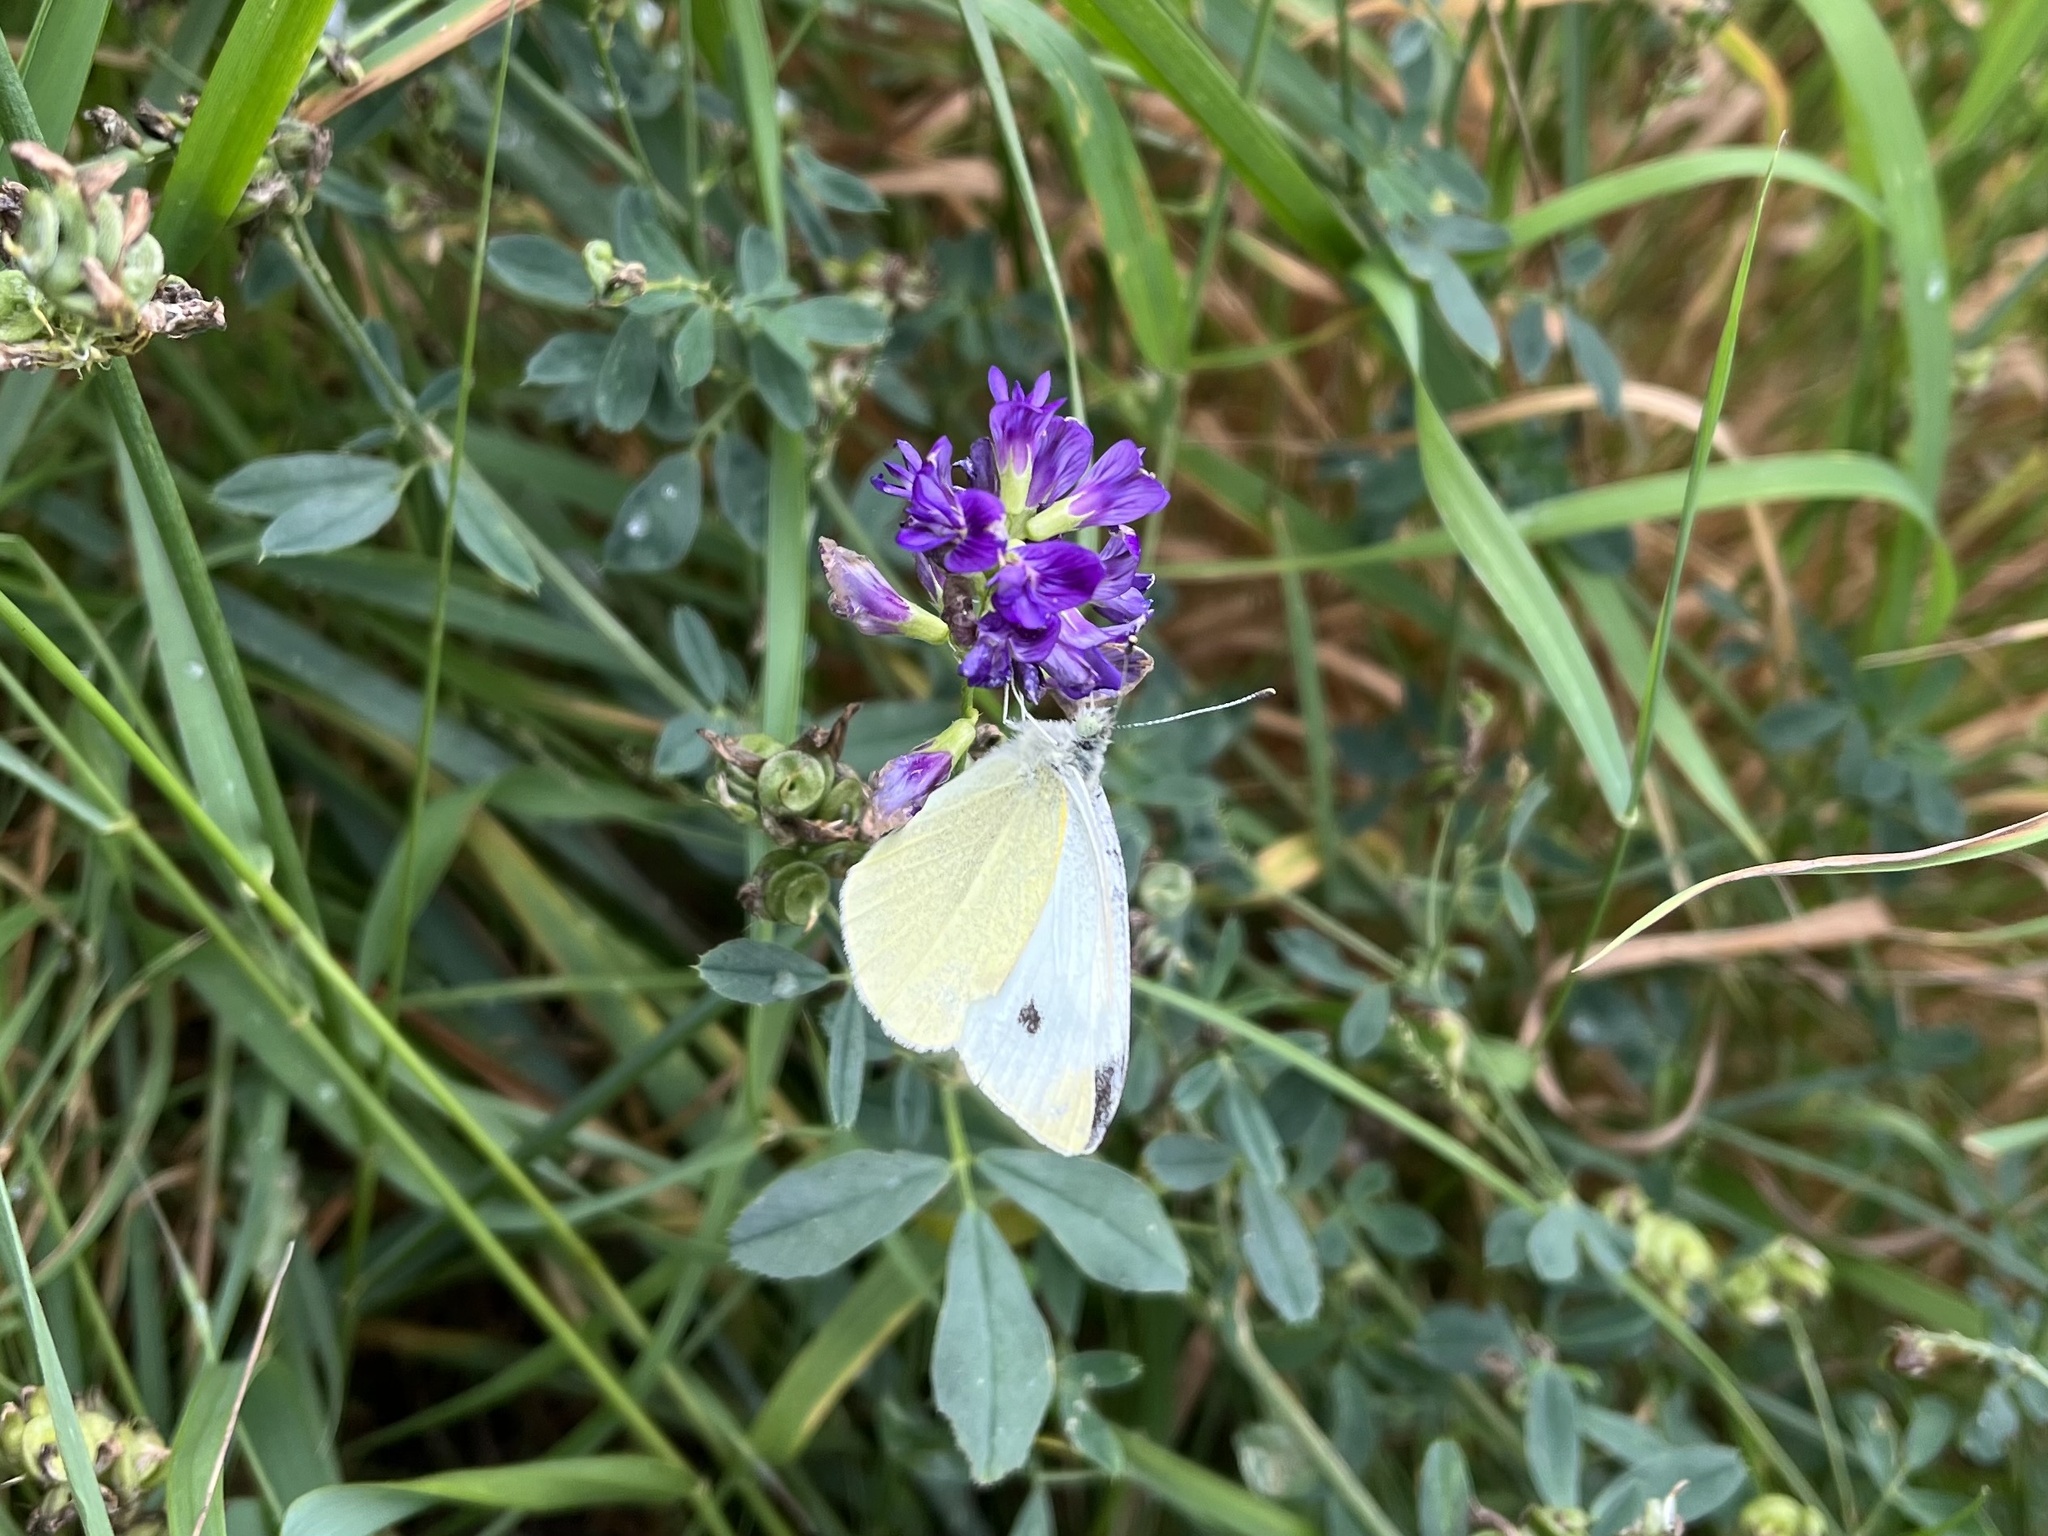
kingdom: Animalia
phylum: Arthropoda
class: Insecta
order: Lepidoptera
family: Pieridae
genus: Pieris
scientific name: Pieris rapae
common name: Small white
